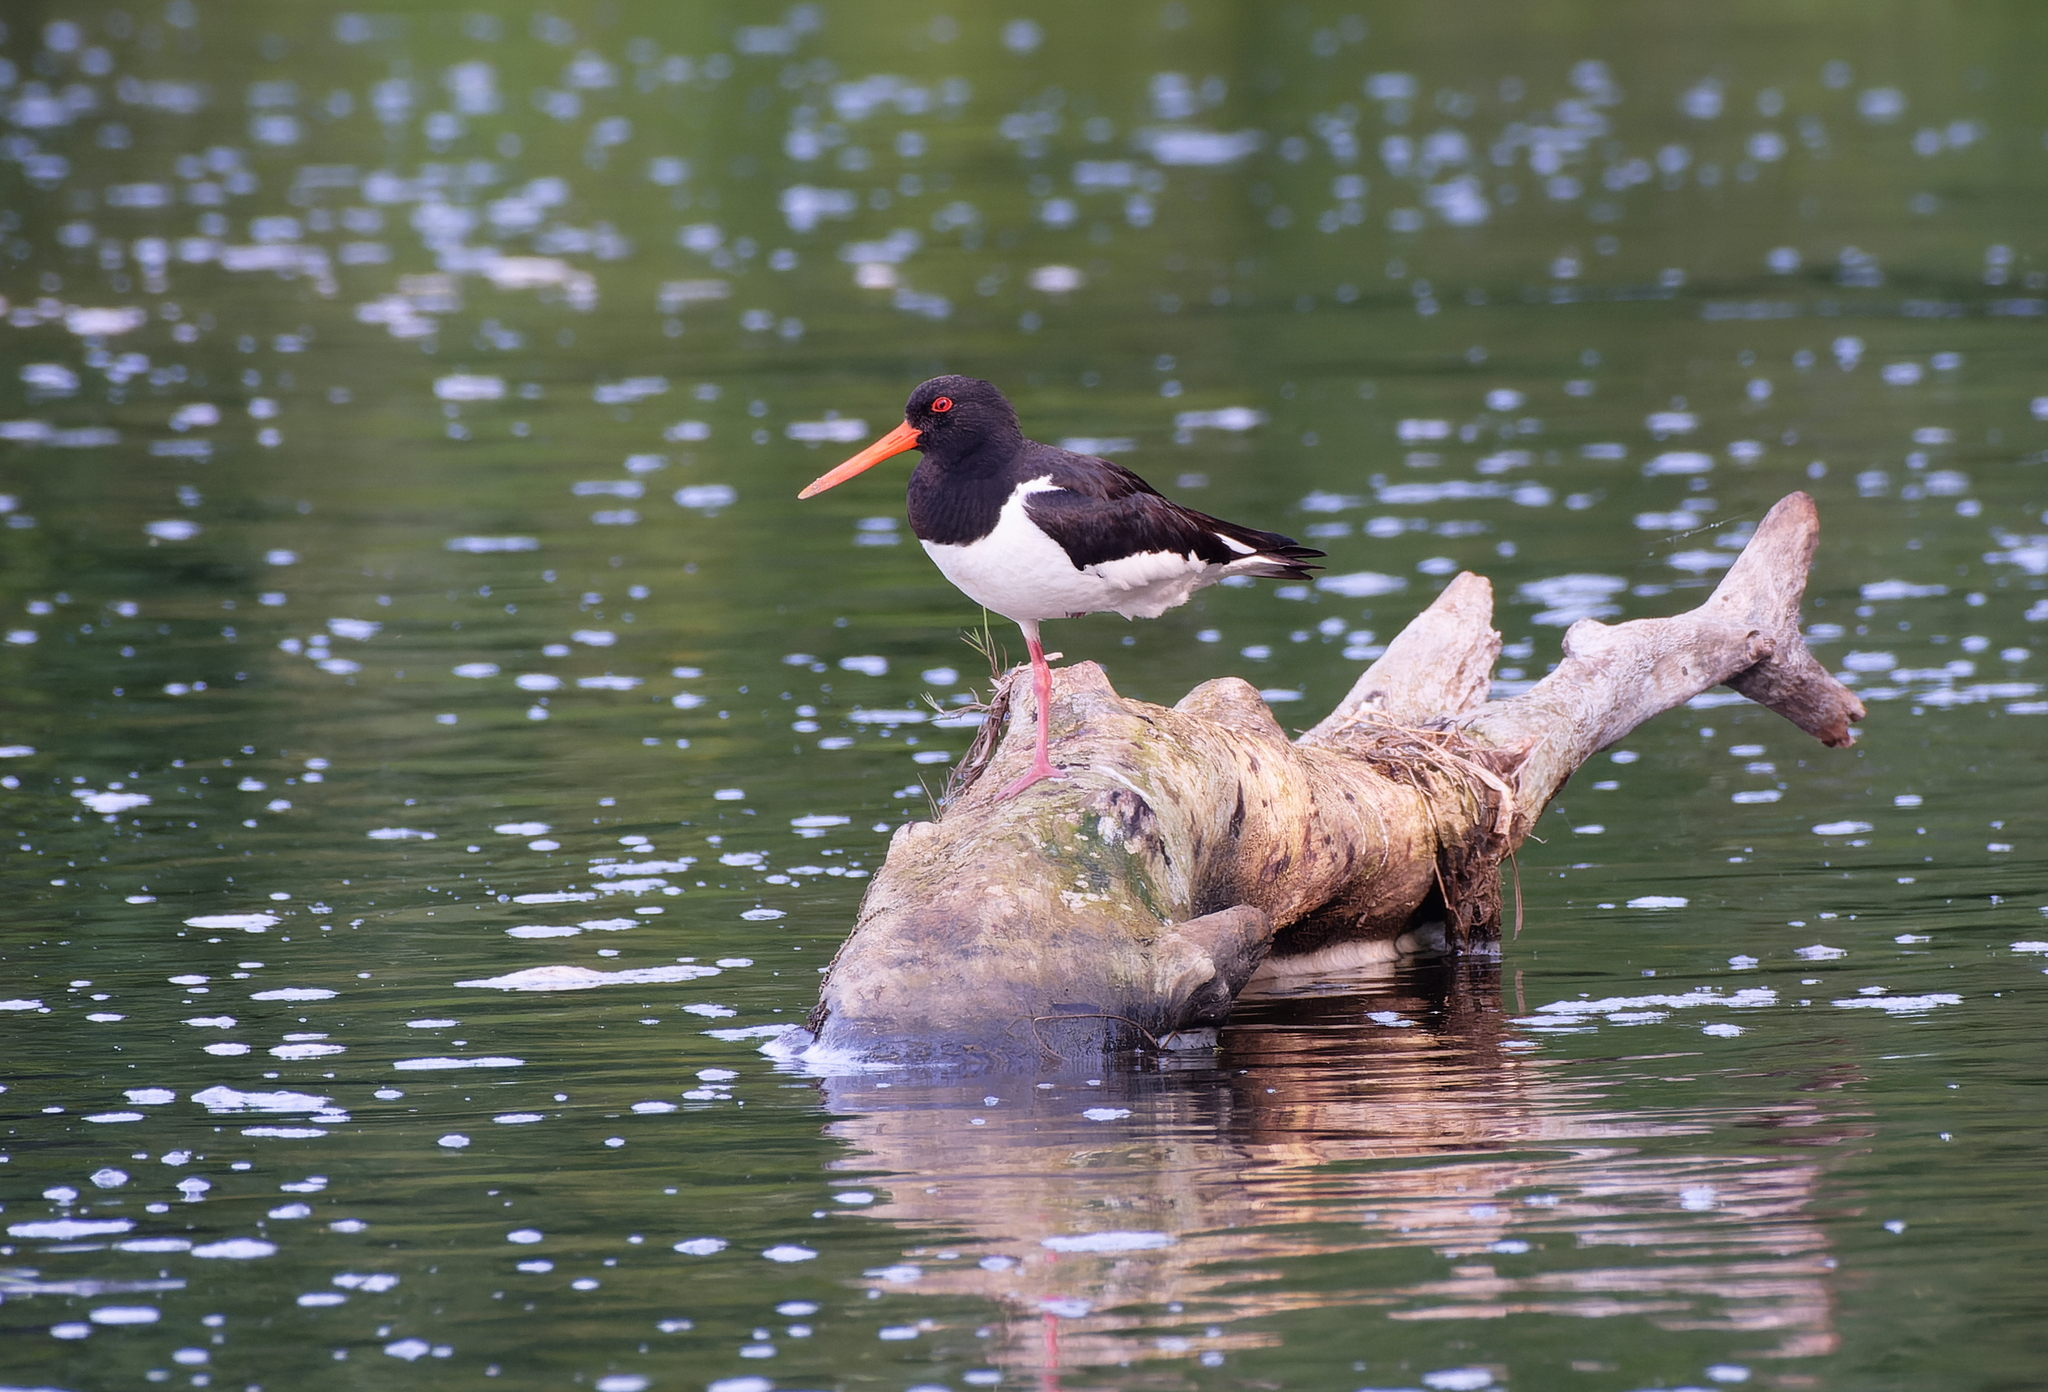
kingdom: Animalia
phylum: Chordata
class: Aves
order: Charadriiformes
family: Haematopodidae
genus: Haematopus
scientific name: Haematopus ostralegus
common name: Eurasian oystercatcher
